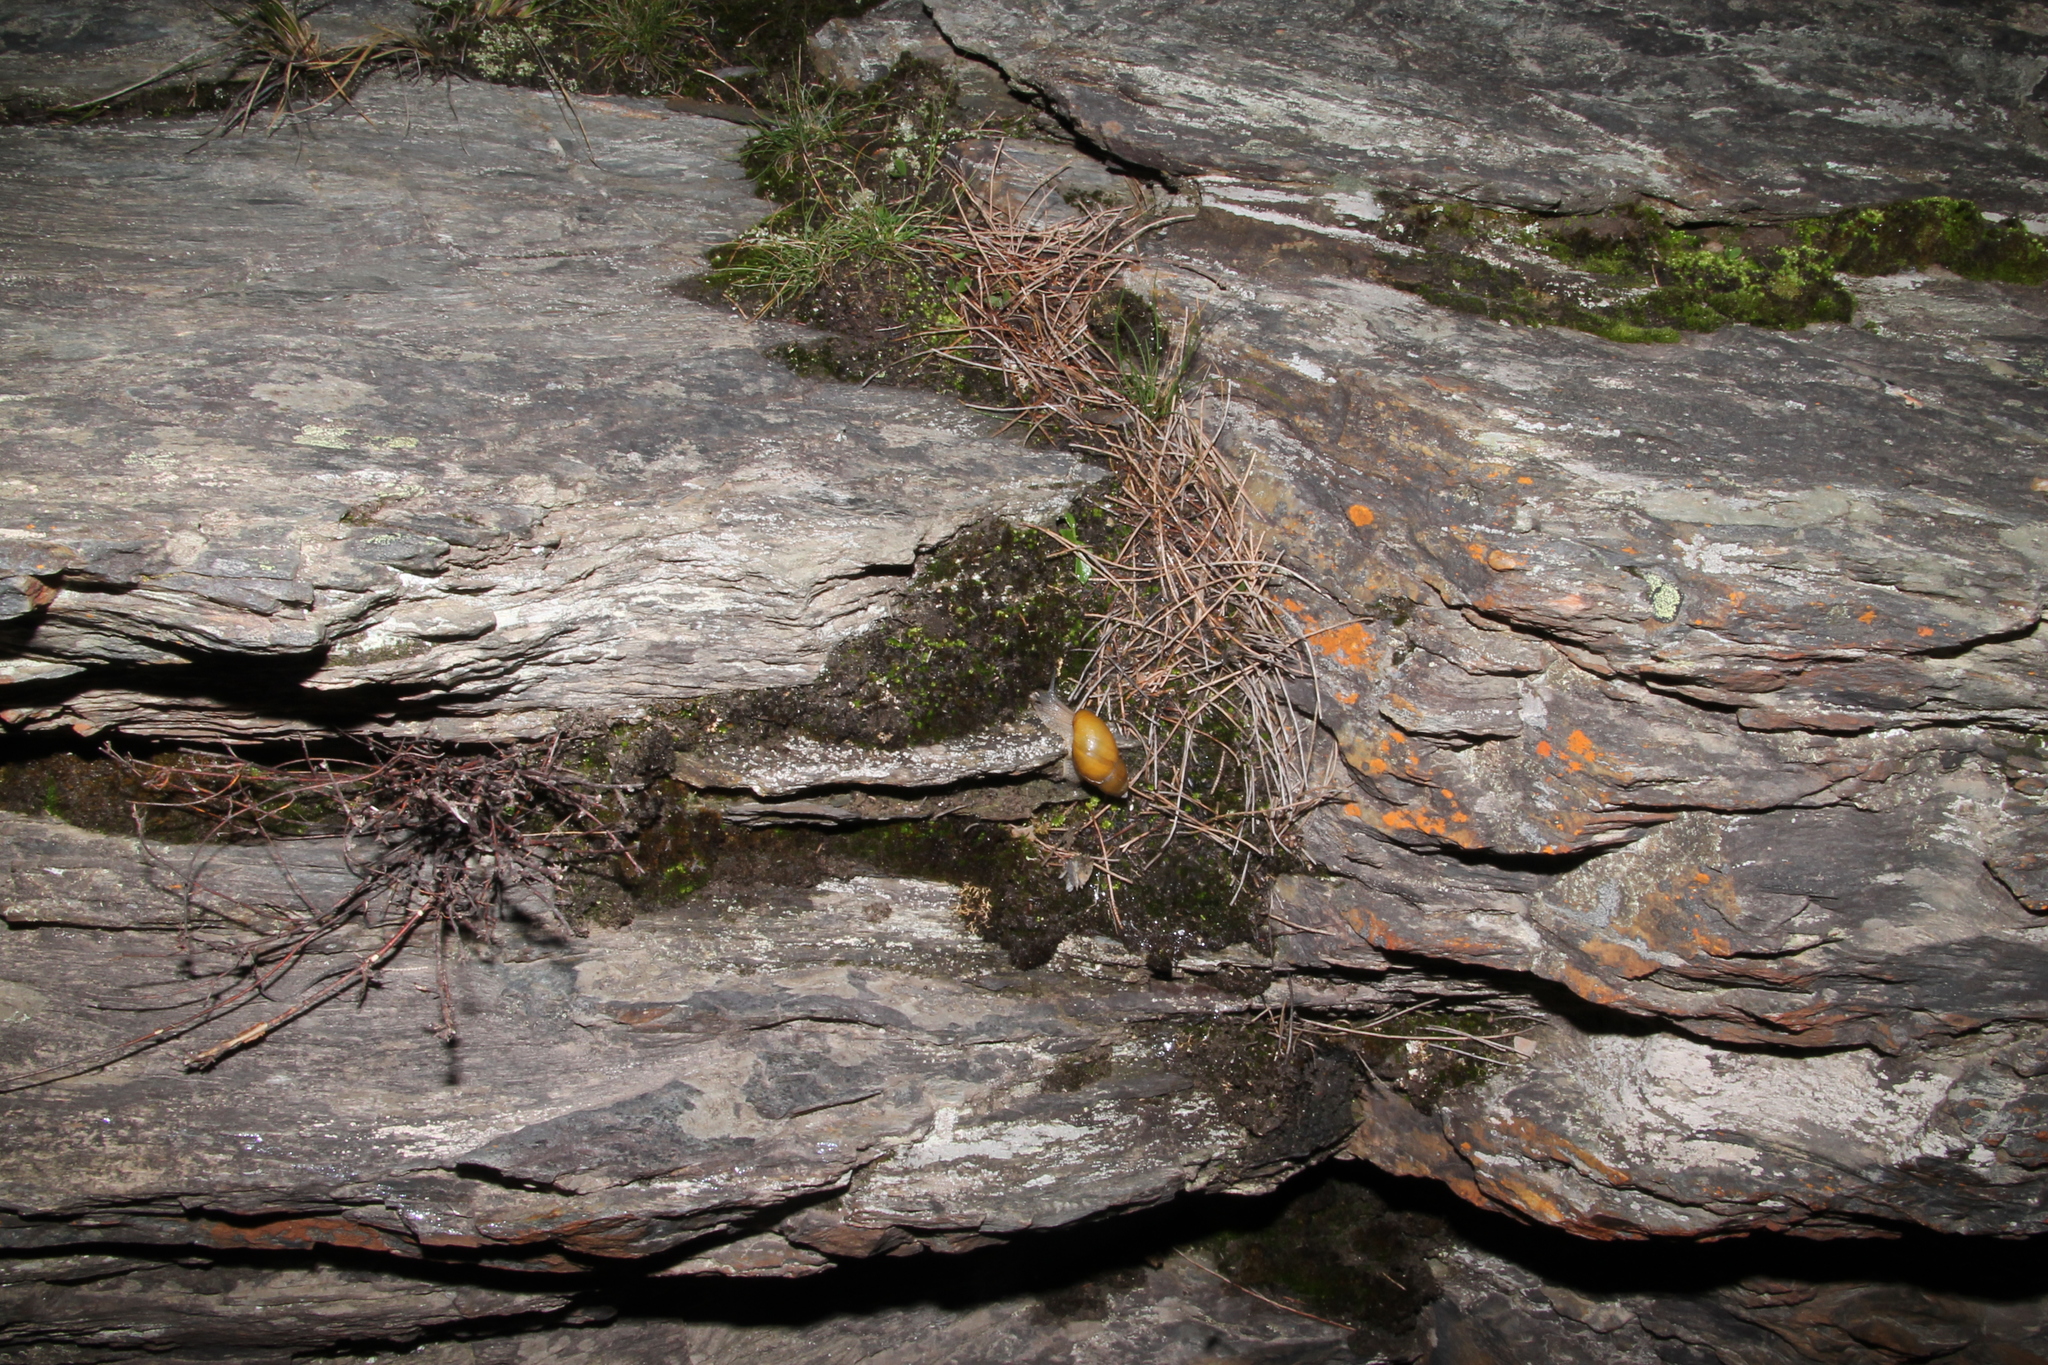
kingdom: Animalia
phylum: Mollusca
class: Gastropoda
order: Stylommatophora
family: Bothriembryontidae
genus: Bothriembryon
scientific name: Bothriembryon glauerti
